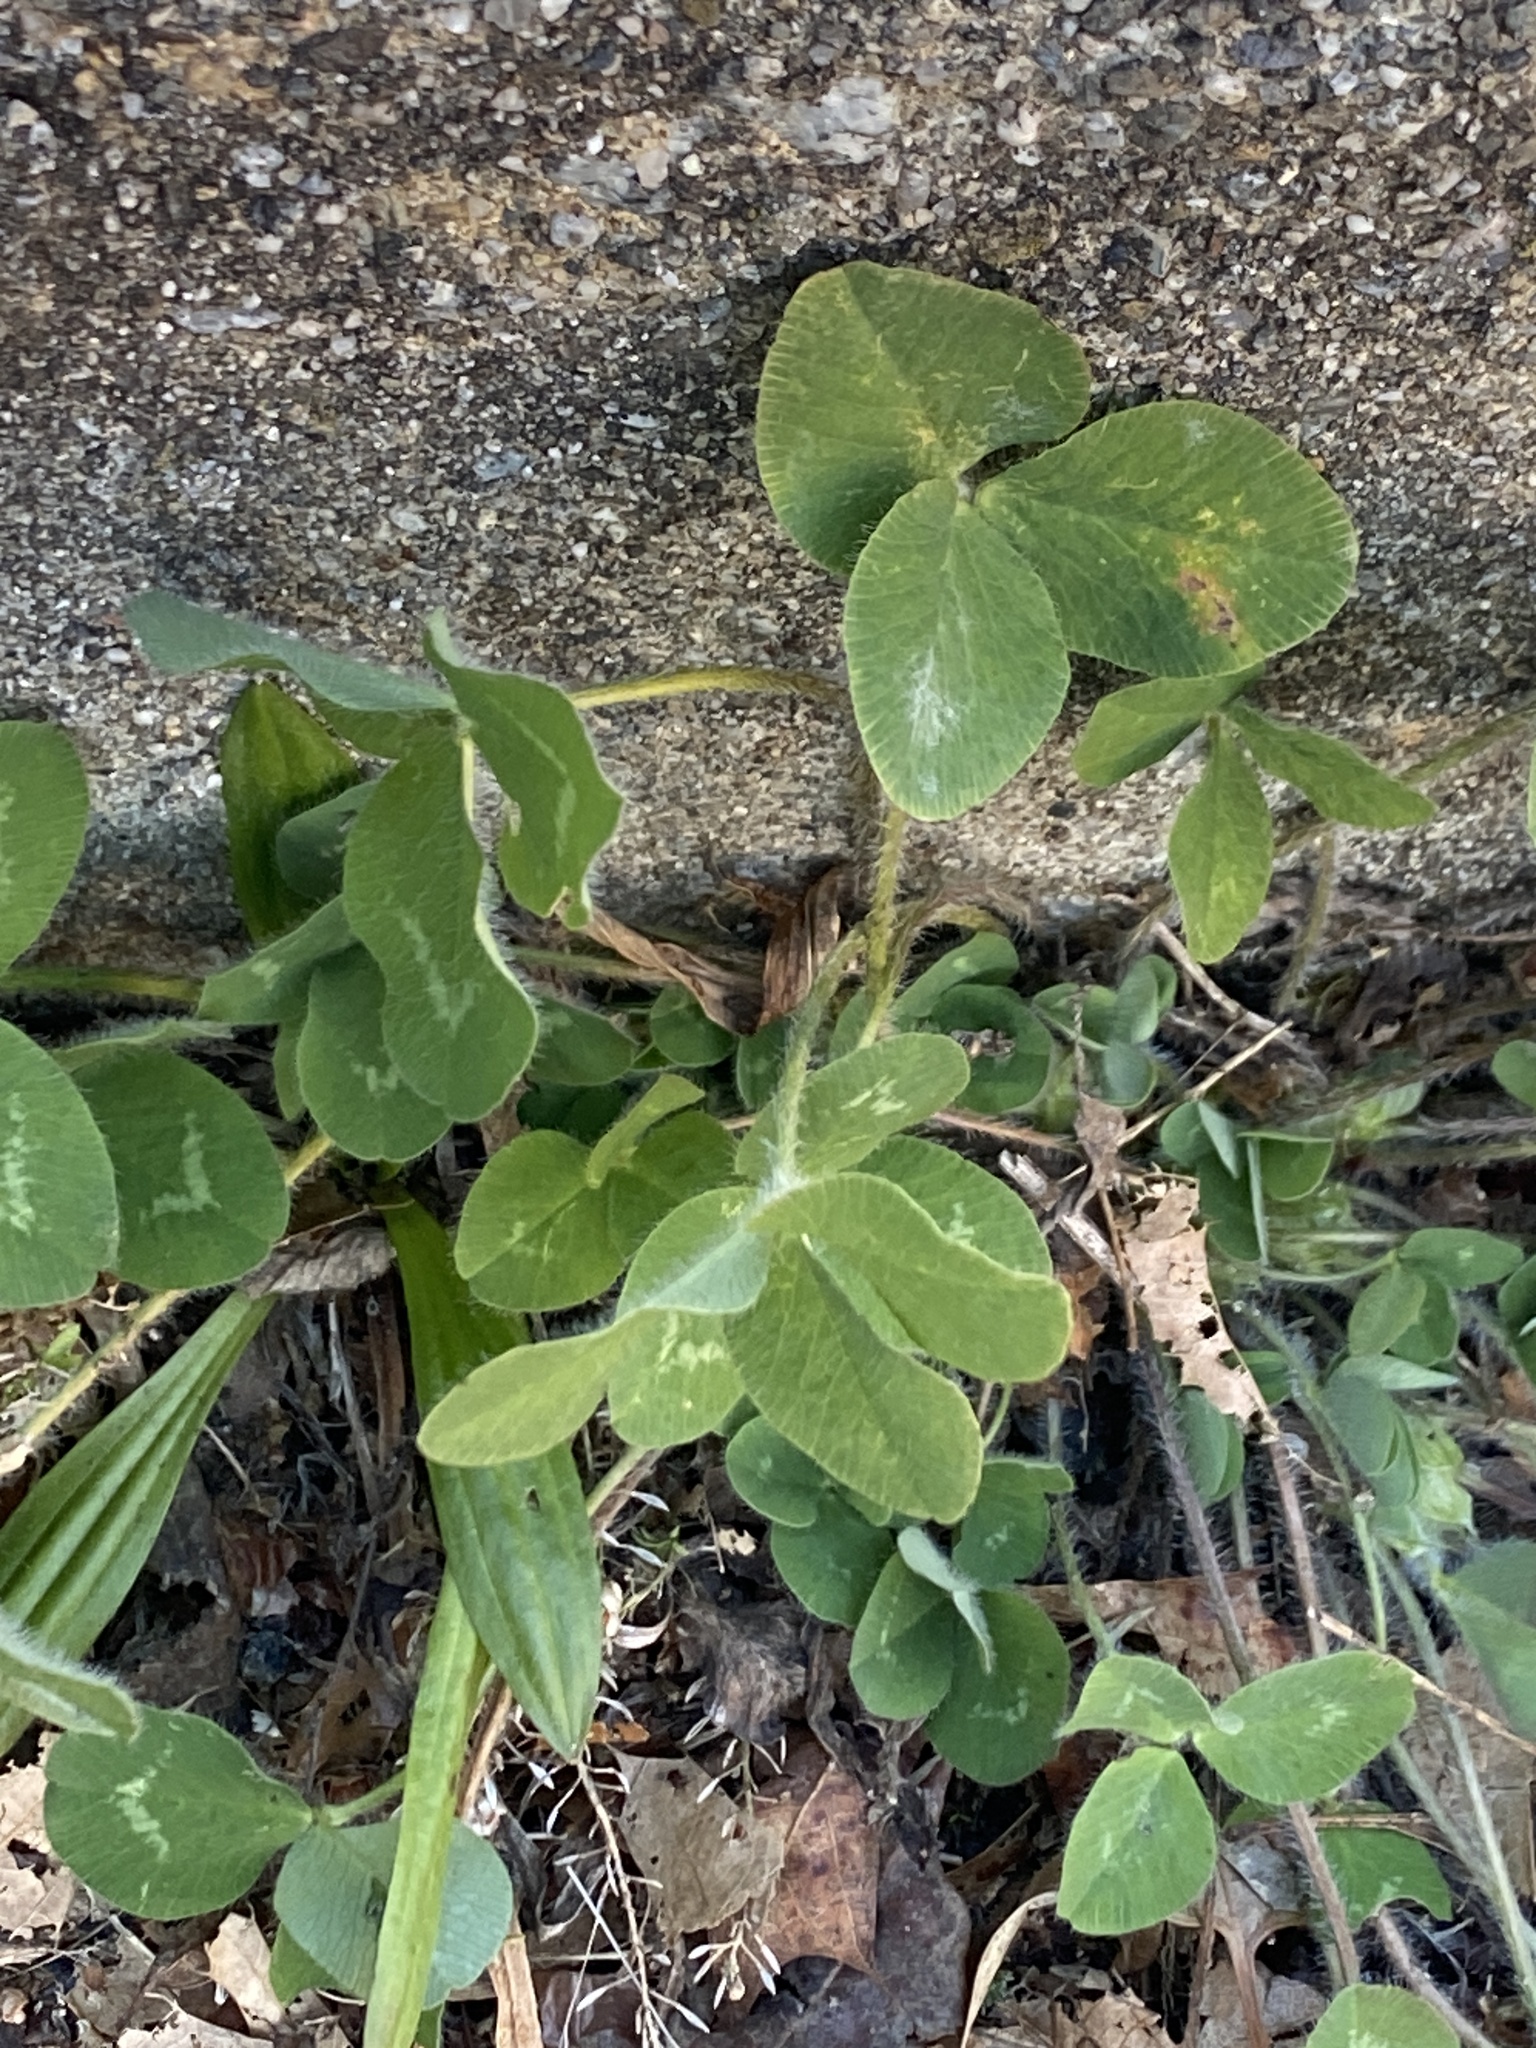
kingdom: Plantae
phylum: Tracheophyta
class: Magnoliopsida
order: Fabales
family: Fabaceae
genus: Trifolium
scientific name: Trifolium pratense
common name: Red clover
